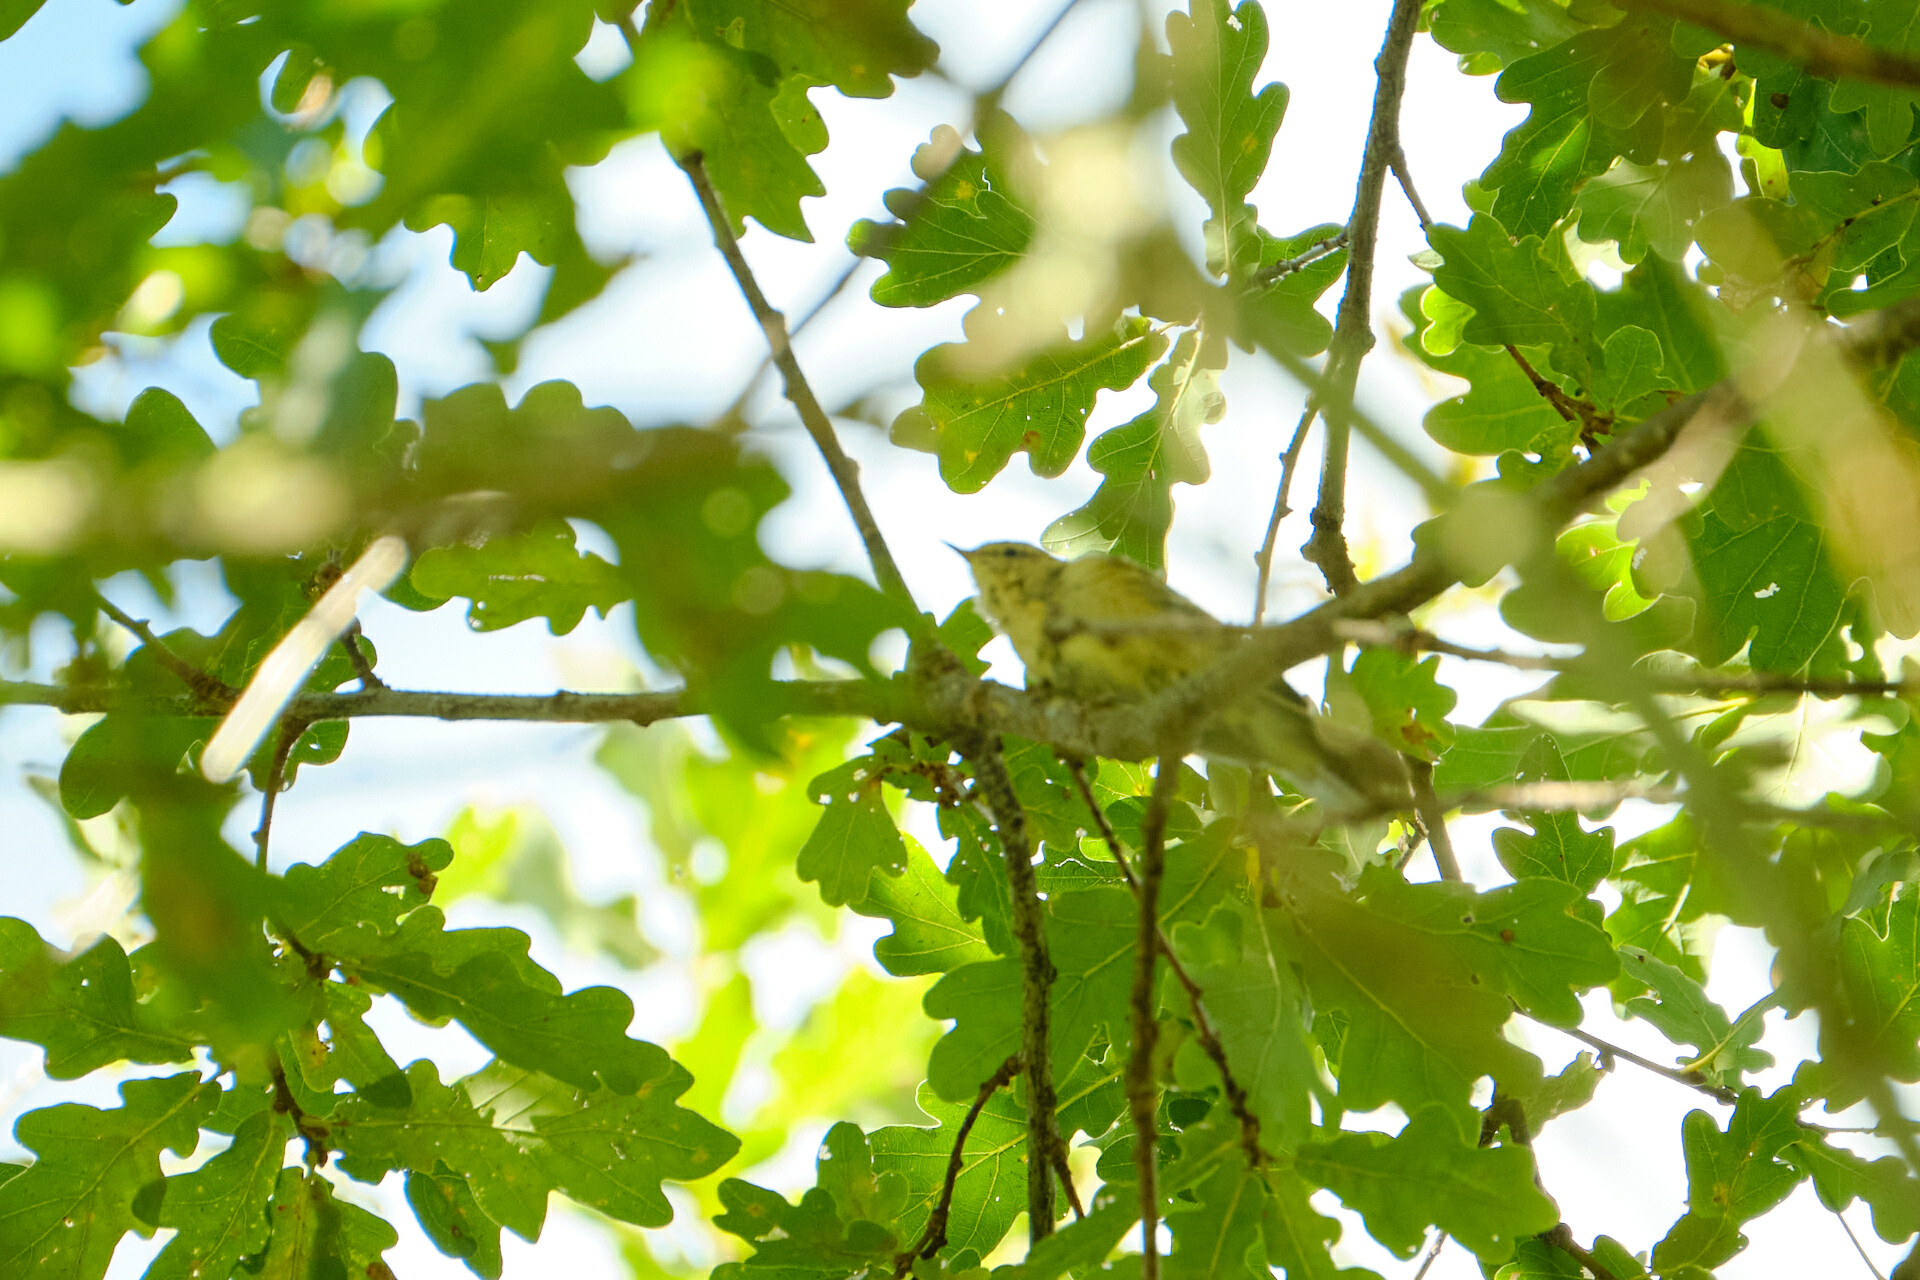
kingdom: Animalia
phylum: Chordata
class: Aves
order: Passeriformes
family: Phylloscopidae
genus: Phylloscopus
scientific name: Phylloscopus collybita
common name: Common chiffchaff
